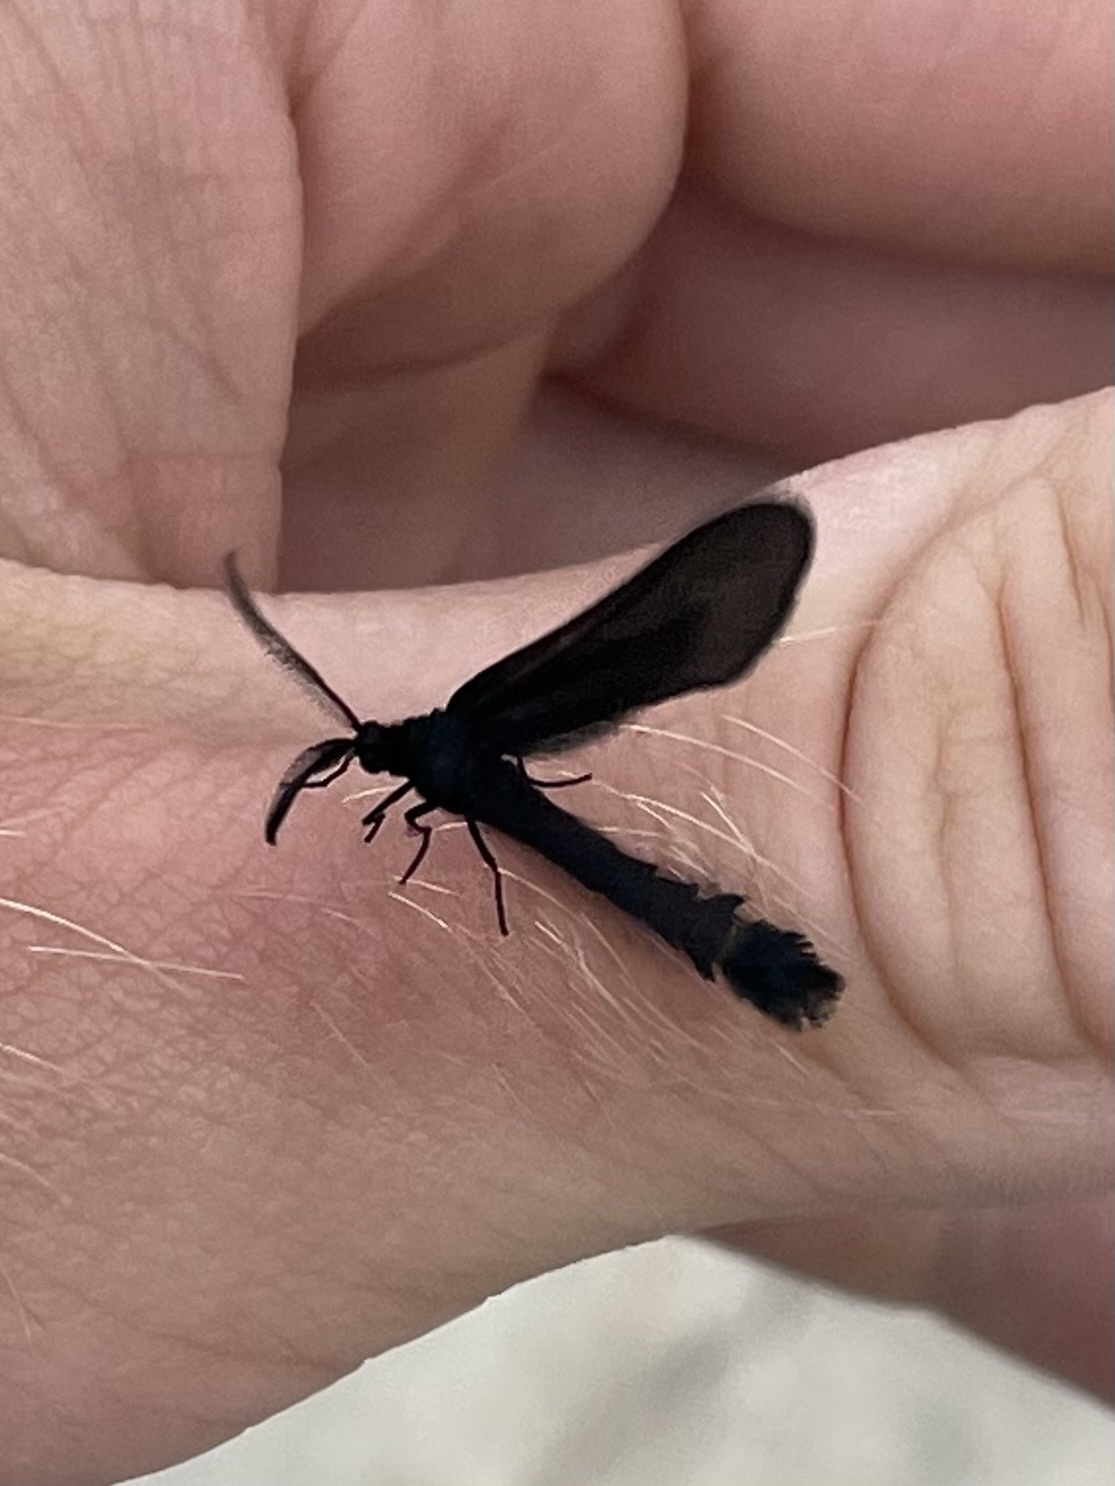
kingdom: Animalia
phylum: Arthropoda
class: Insecta
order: Lepidoptera
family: Zygaenidae
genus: Harrisina
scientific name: Harrisina coracina
